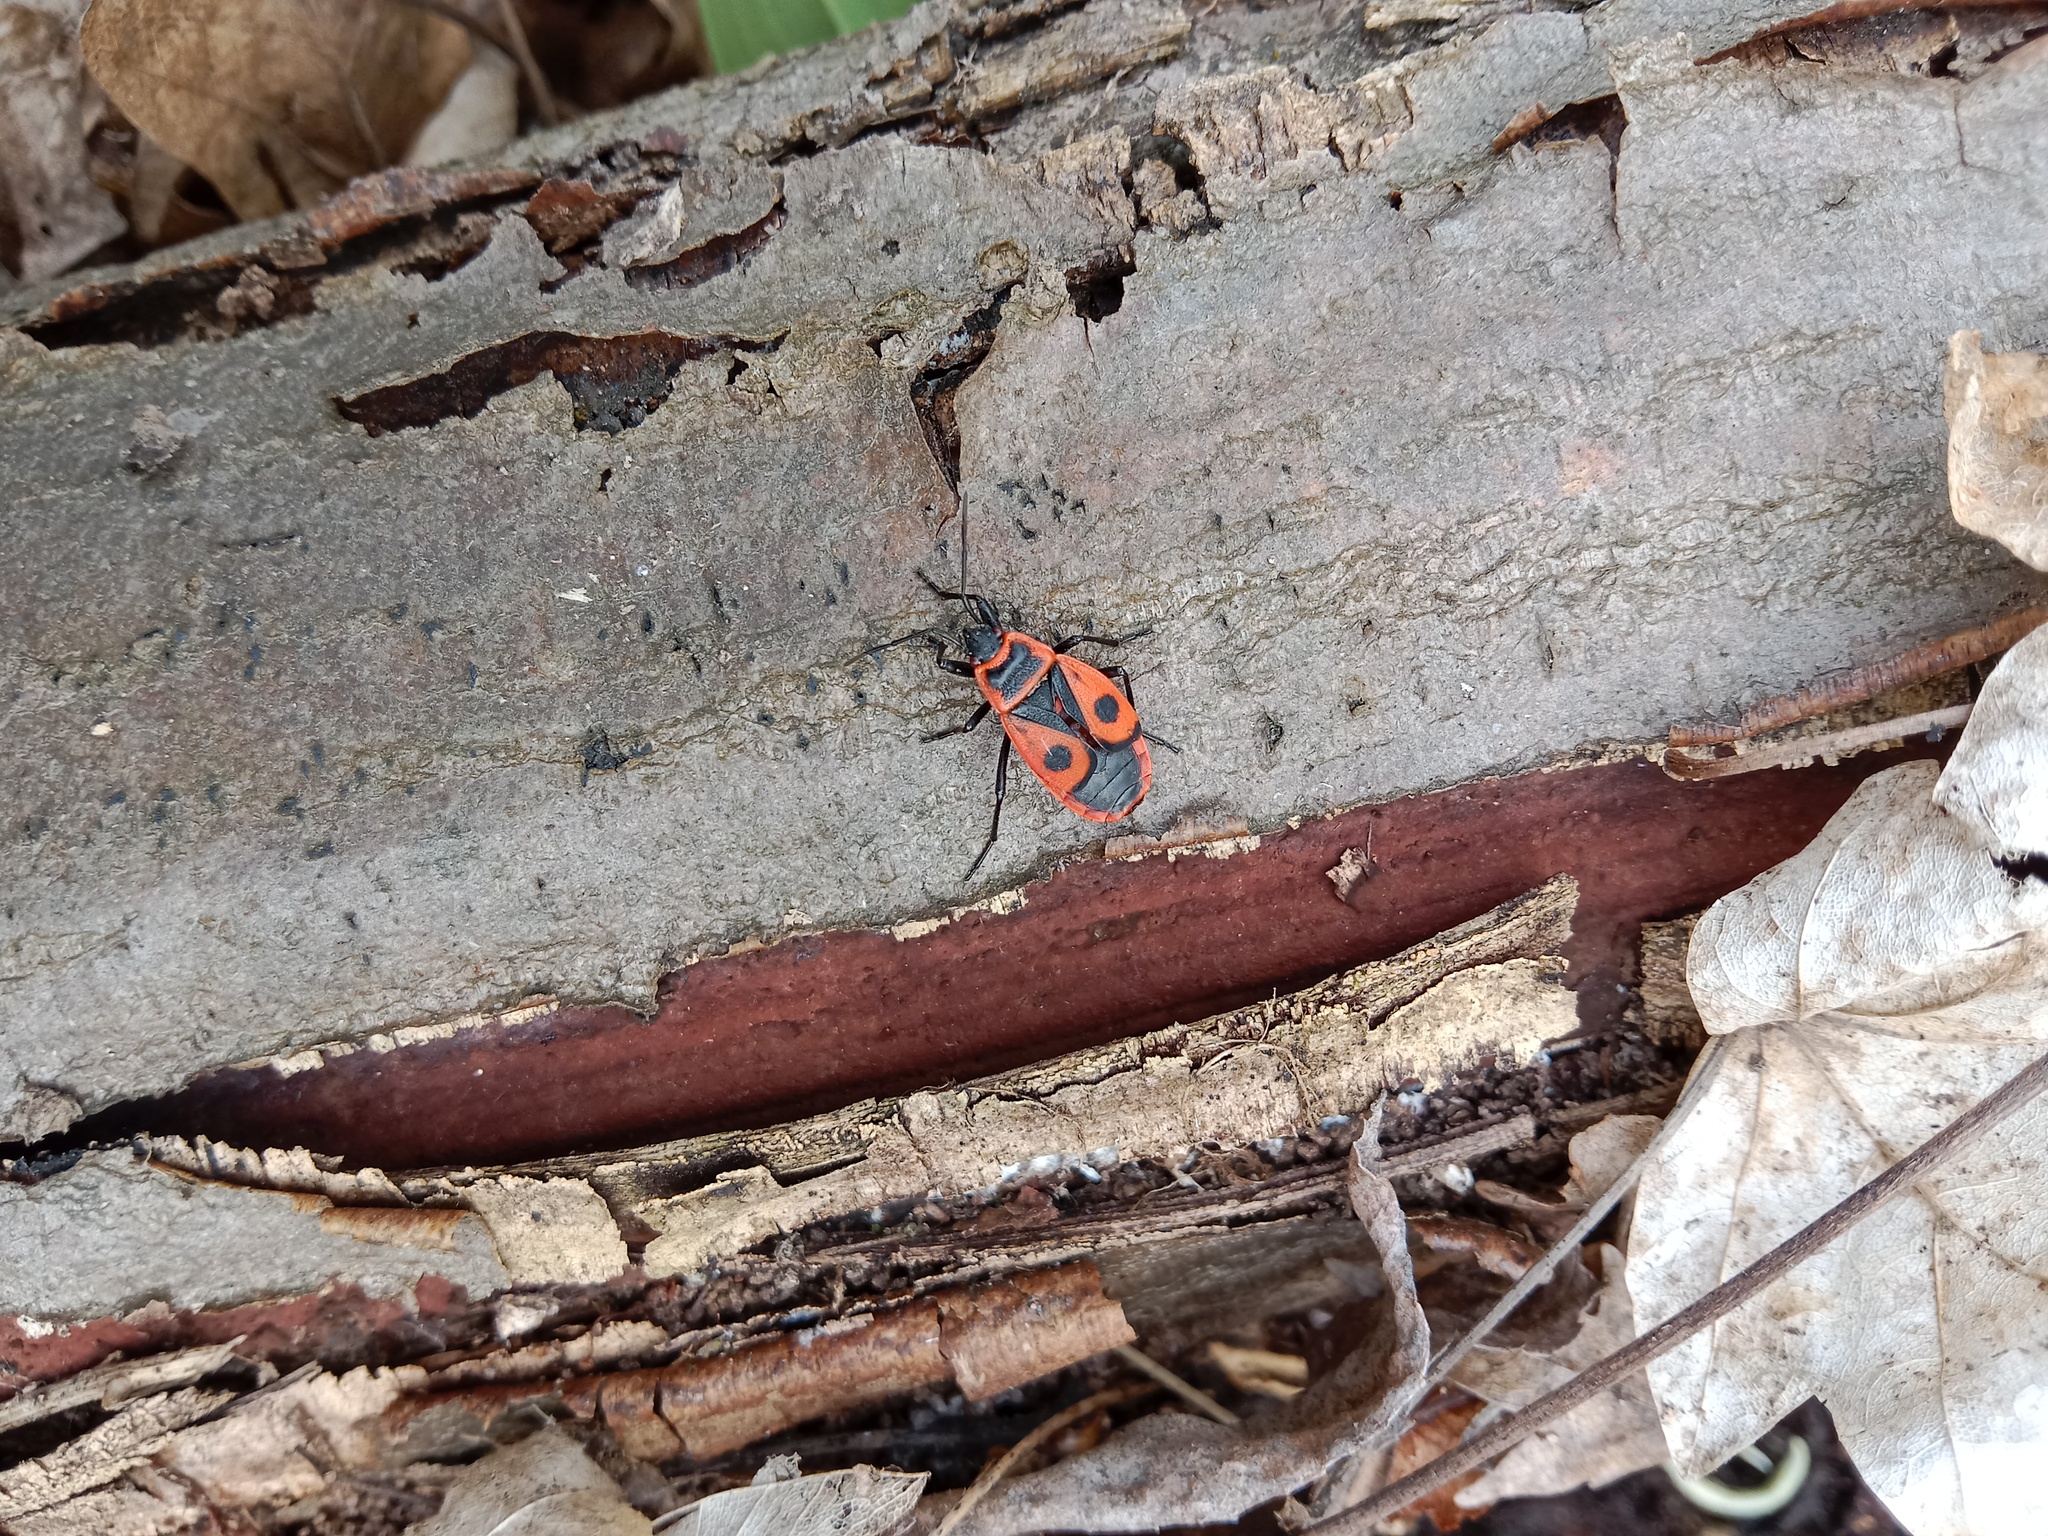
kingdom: Animalia
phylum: Arthropoda
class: Insecta
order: Hemiptera
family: Pyrrhocoridae
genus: Pyrrhocoris
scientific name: Pyrrhocoris apterus
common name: Firebug
